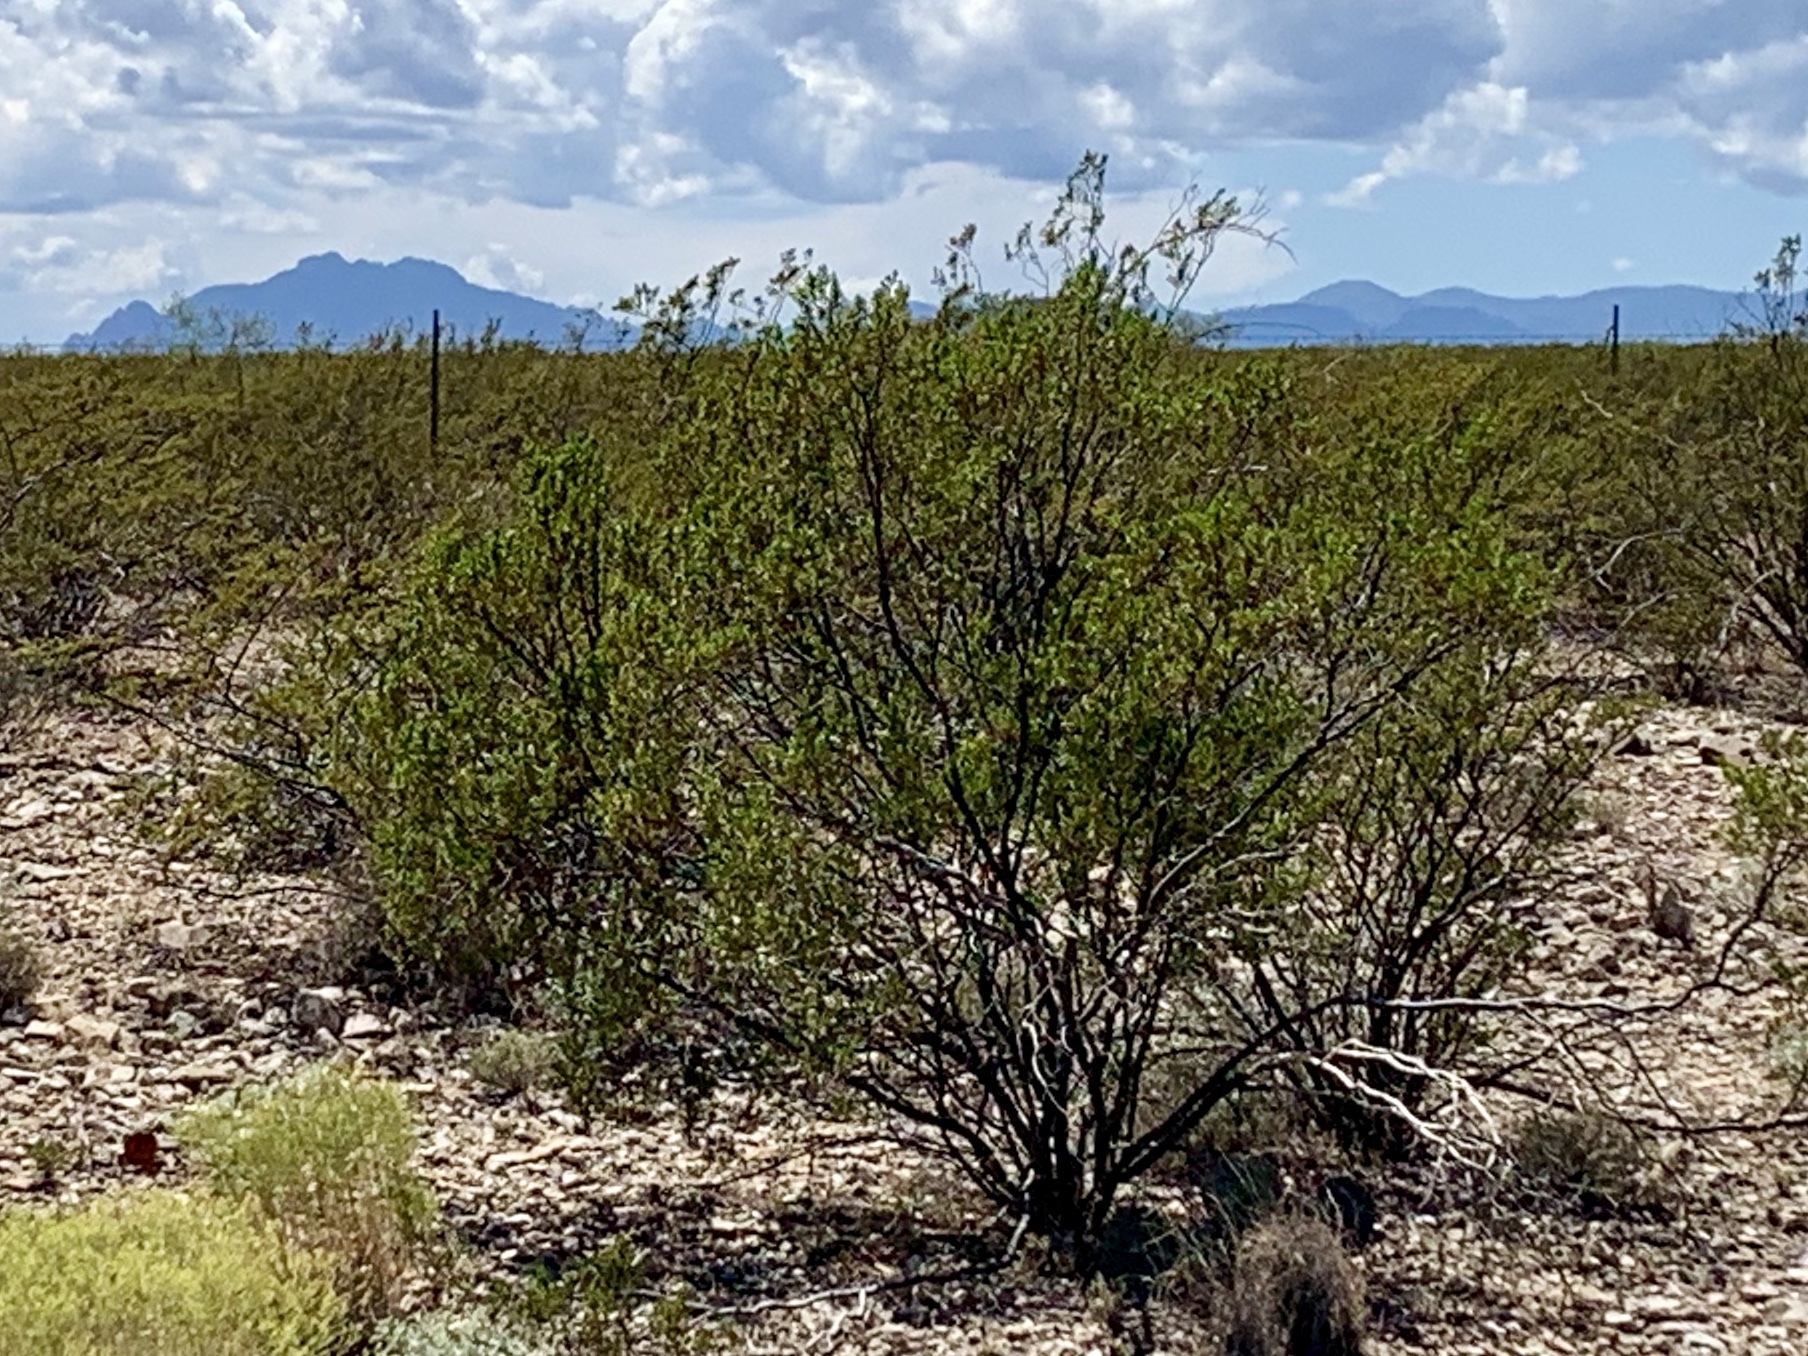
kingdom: Plantae
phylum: Tracheophyta
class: Magnoliopsida
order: Zygophyllales
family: Zygophyllaceae
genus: Larrea
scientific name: Larrea tridentata
